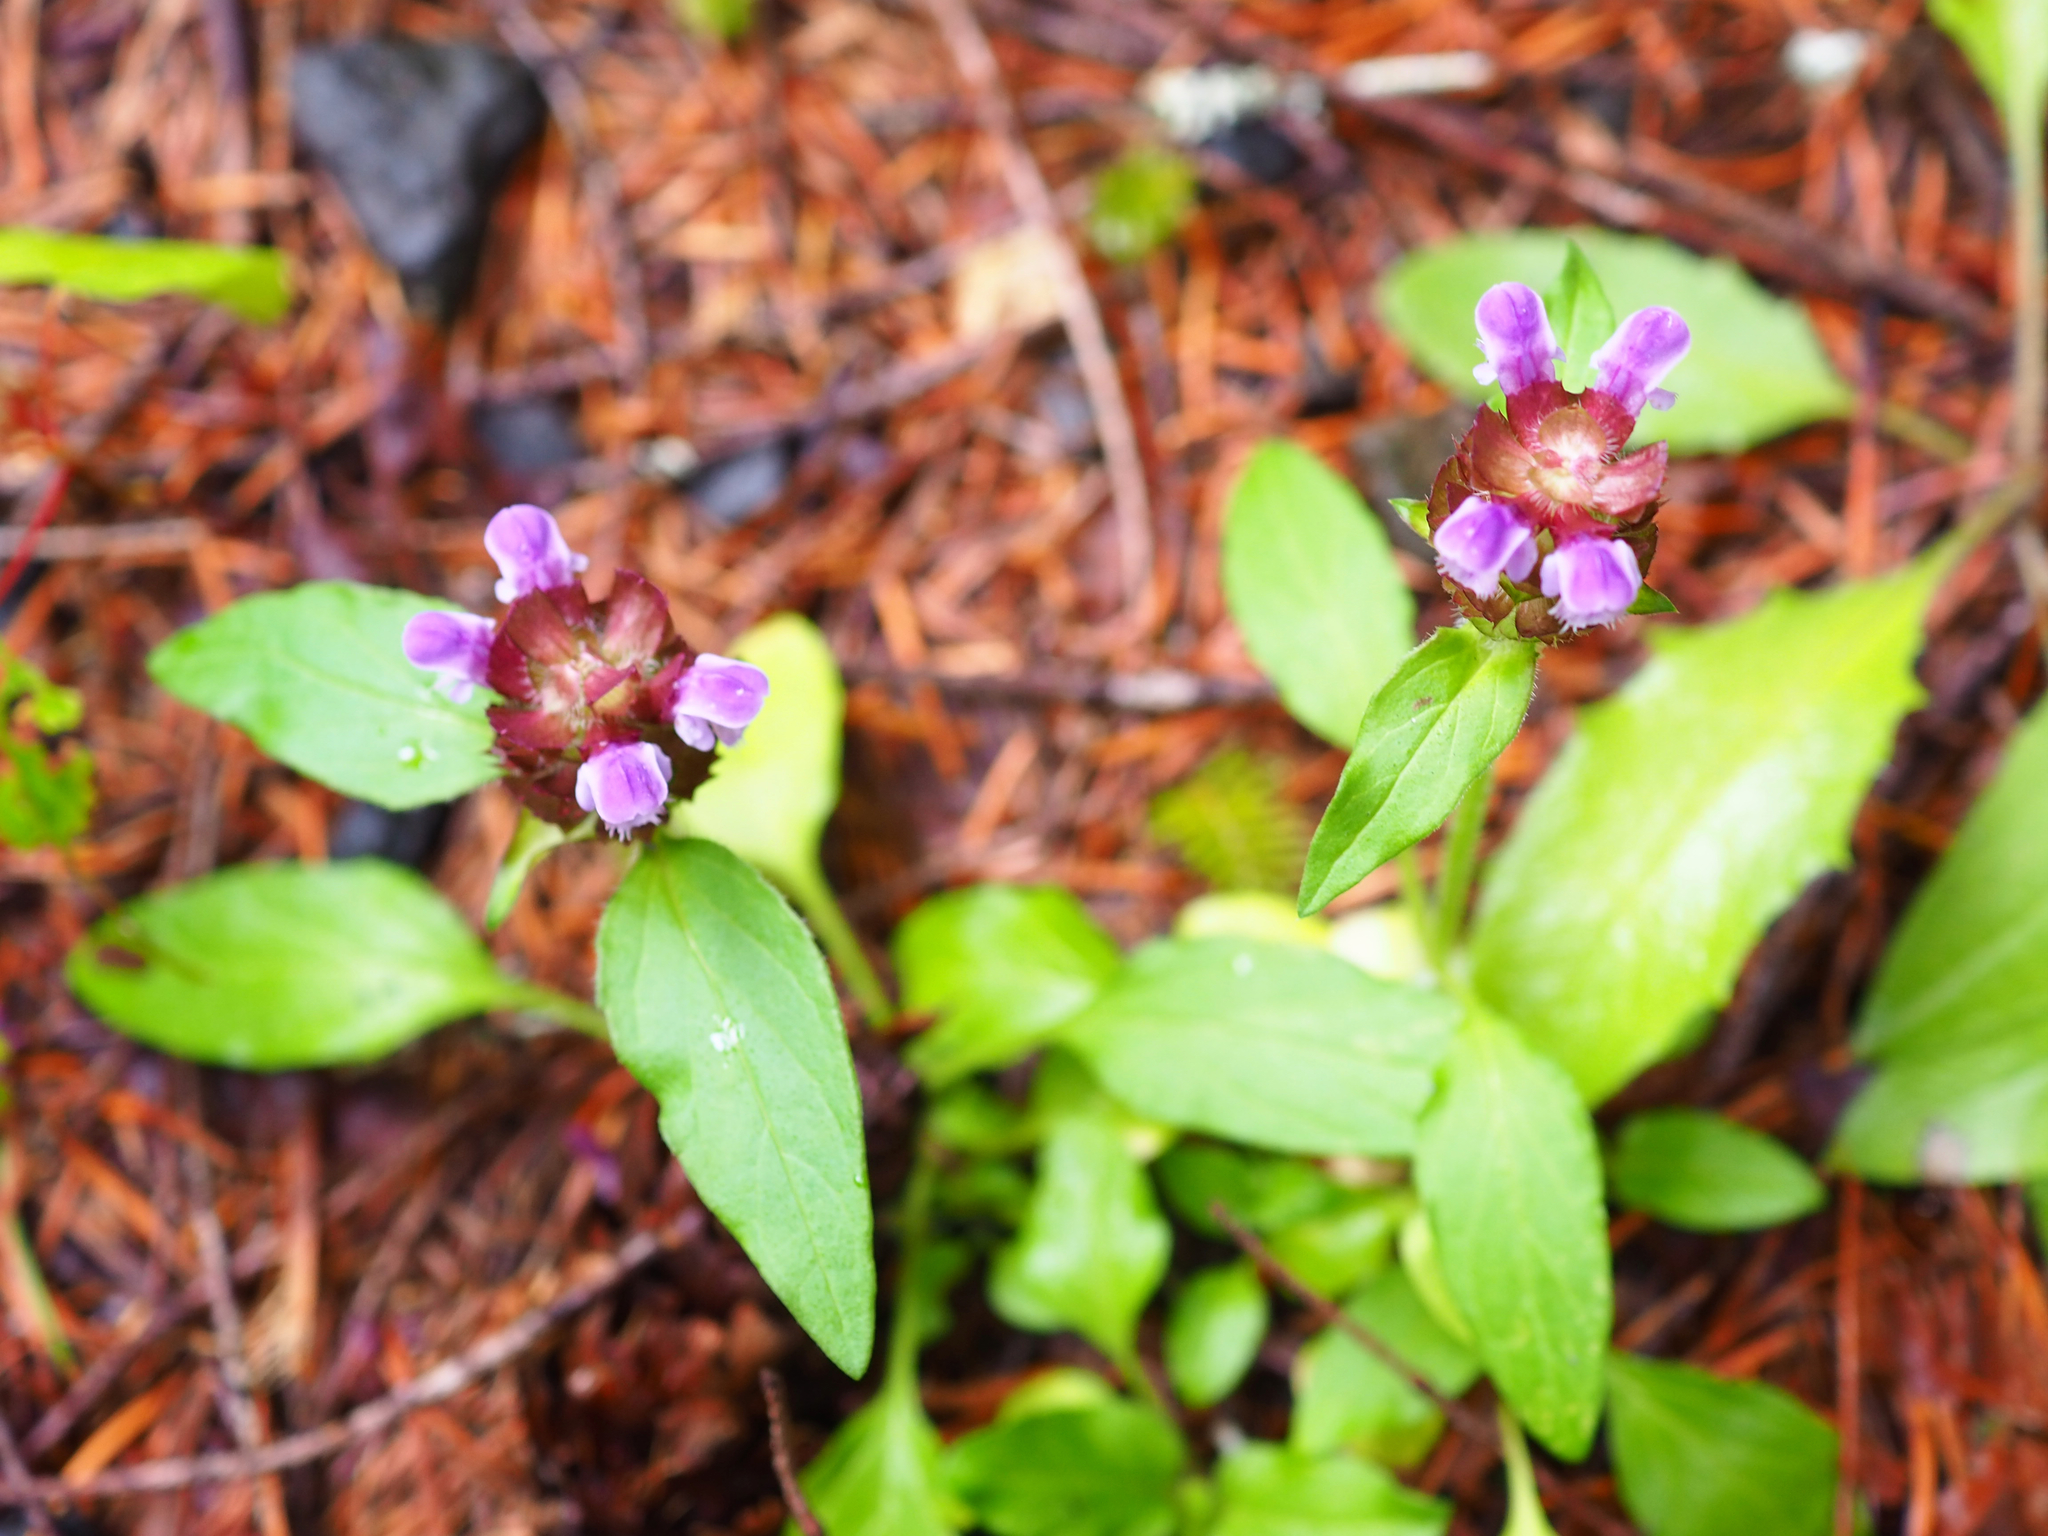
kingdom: Plantae
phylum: Tracheophyta
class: Magnoliopsida
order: Lamiales
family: Lamiaceae
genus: Prunella
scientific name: Prunella vulgaris
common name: Heal-all
